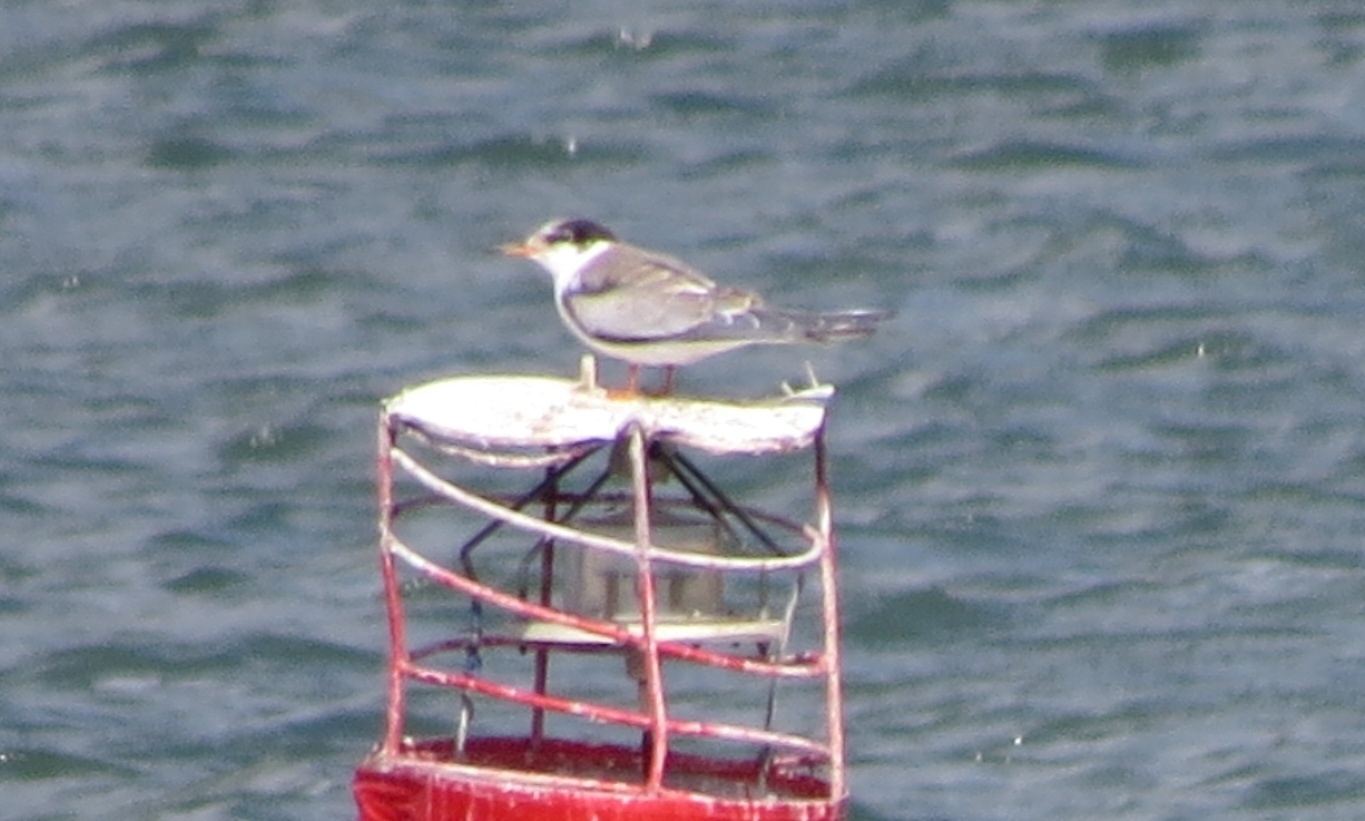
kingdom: Animalia
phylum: Chordata
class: Aves
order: Charadriiformes
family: Laridae
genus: Sterna
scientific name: Sterna hirundo
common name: Common tern
